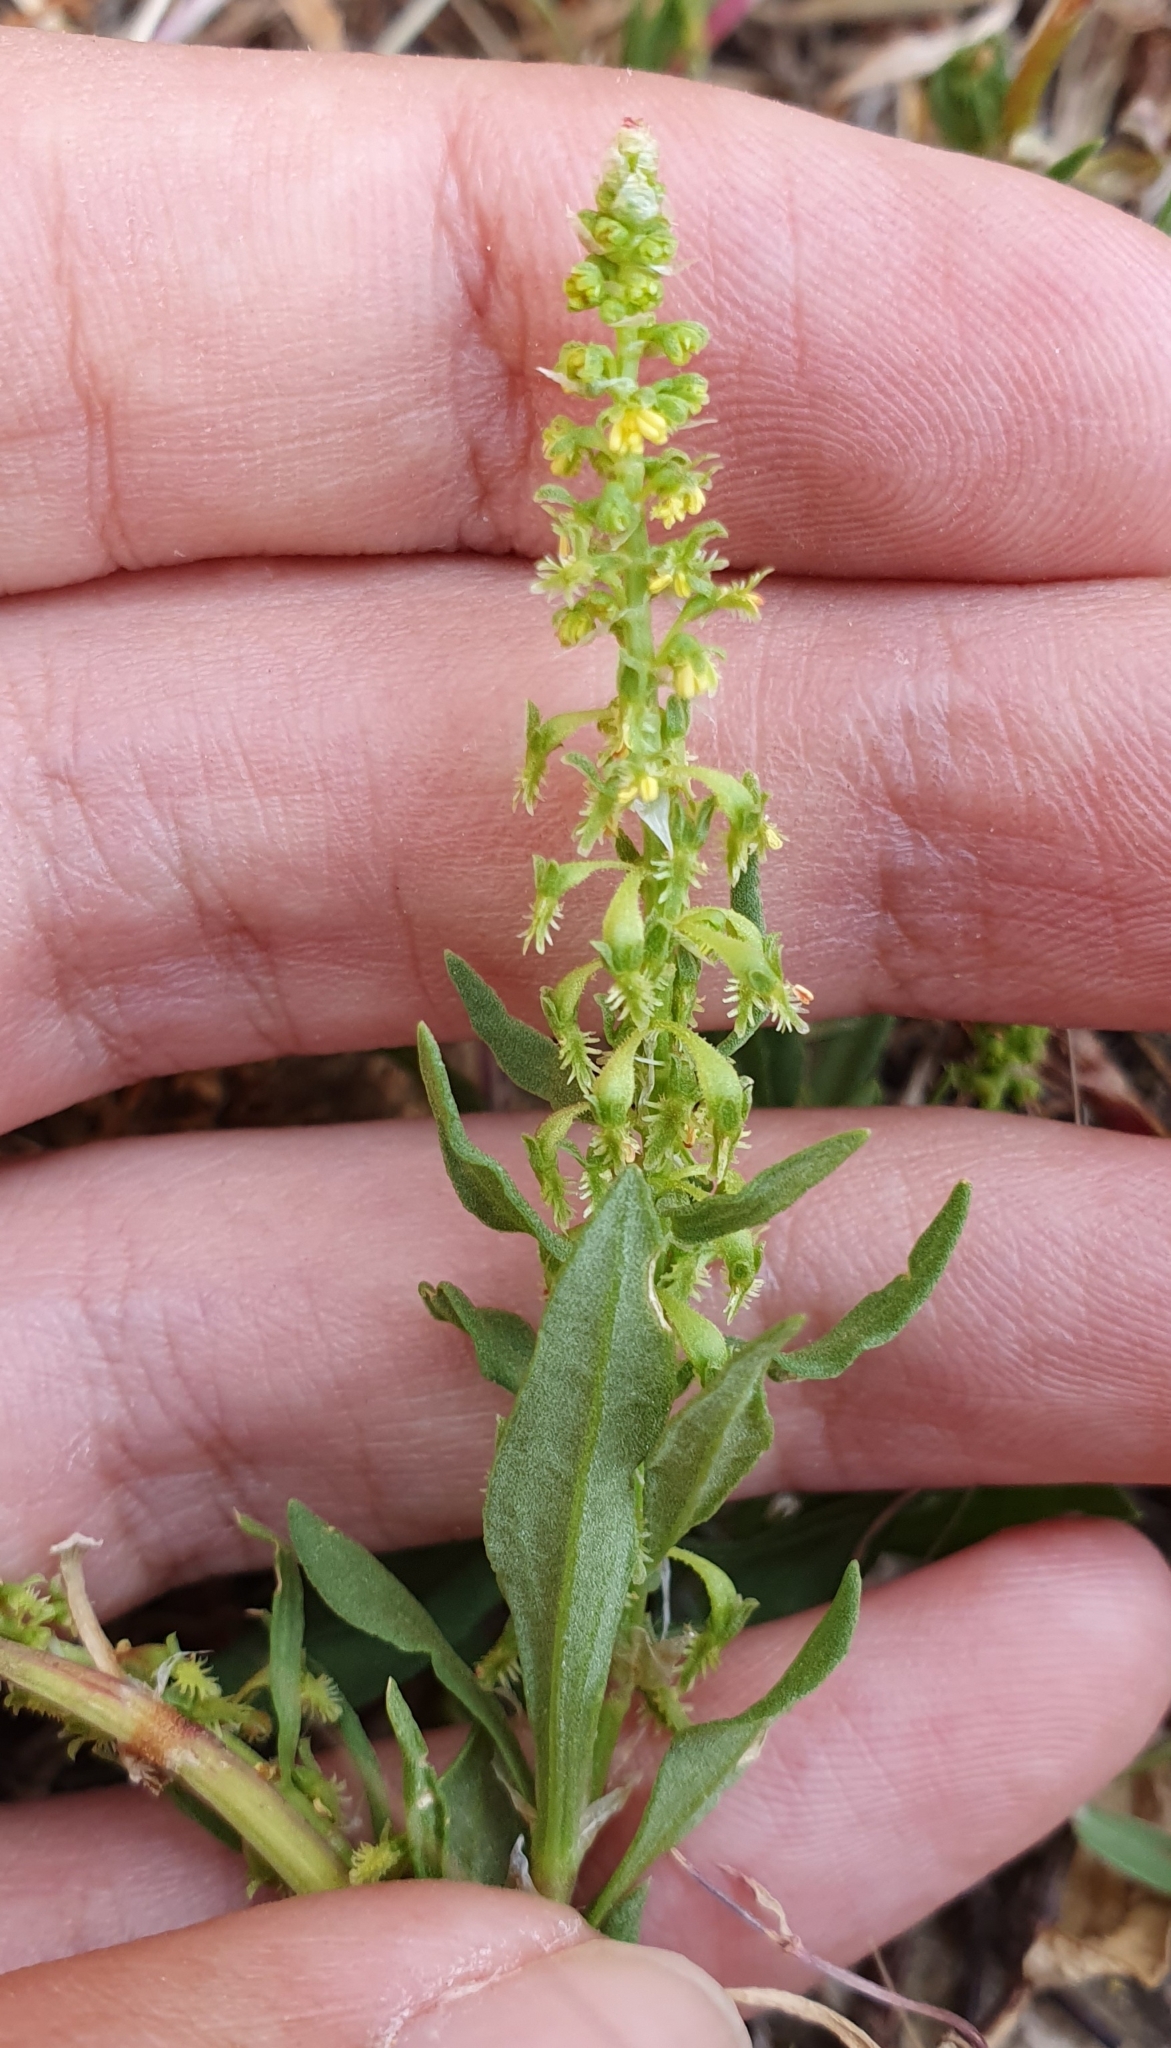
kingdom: Plantae
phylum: Tracheophyta
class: Magnoliopsida
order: Caryophyllales
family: Polygonaceae
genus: Rumex
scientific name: Rumex bucephalophorus
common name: Red dock
